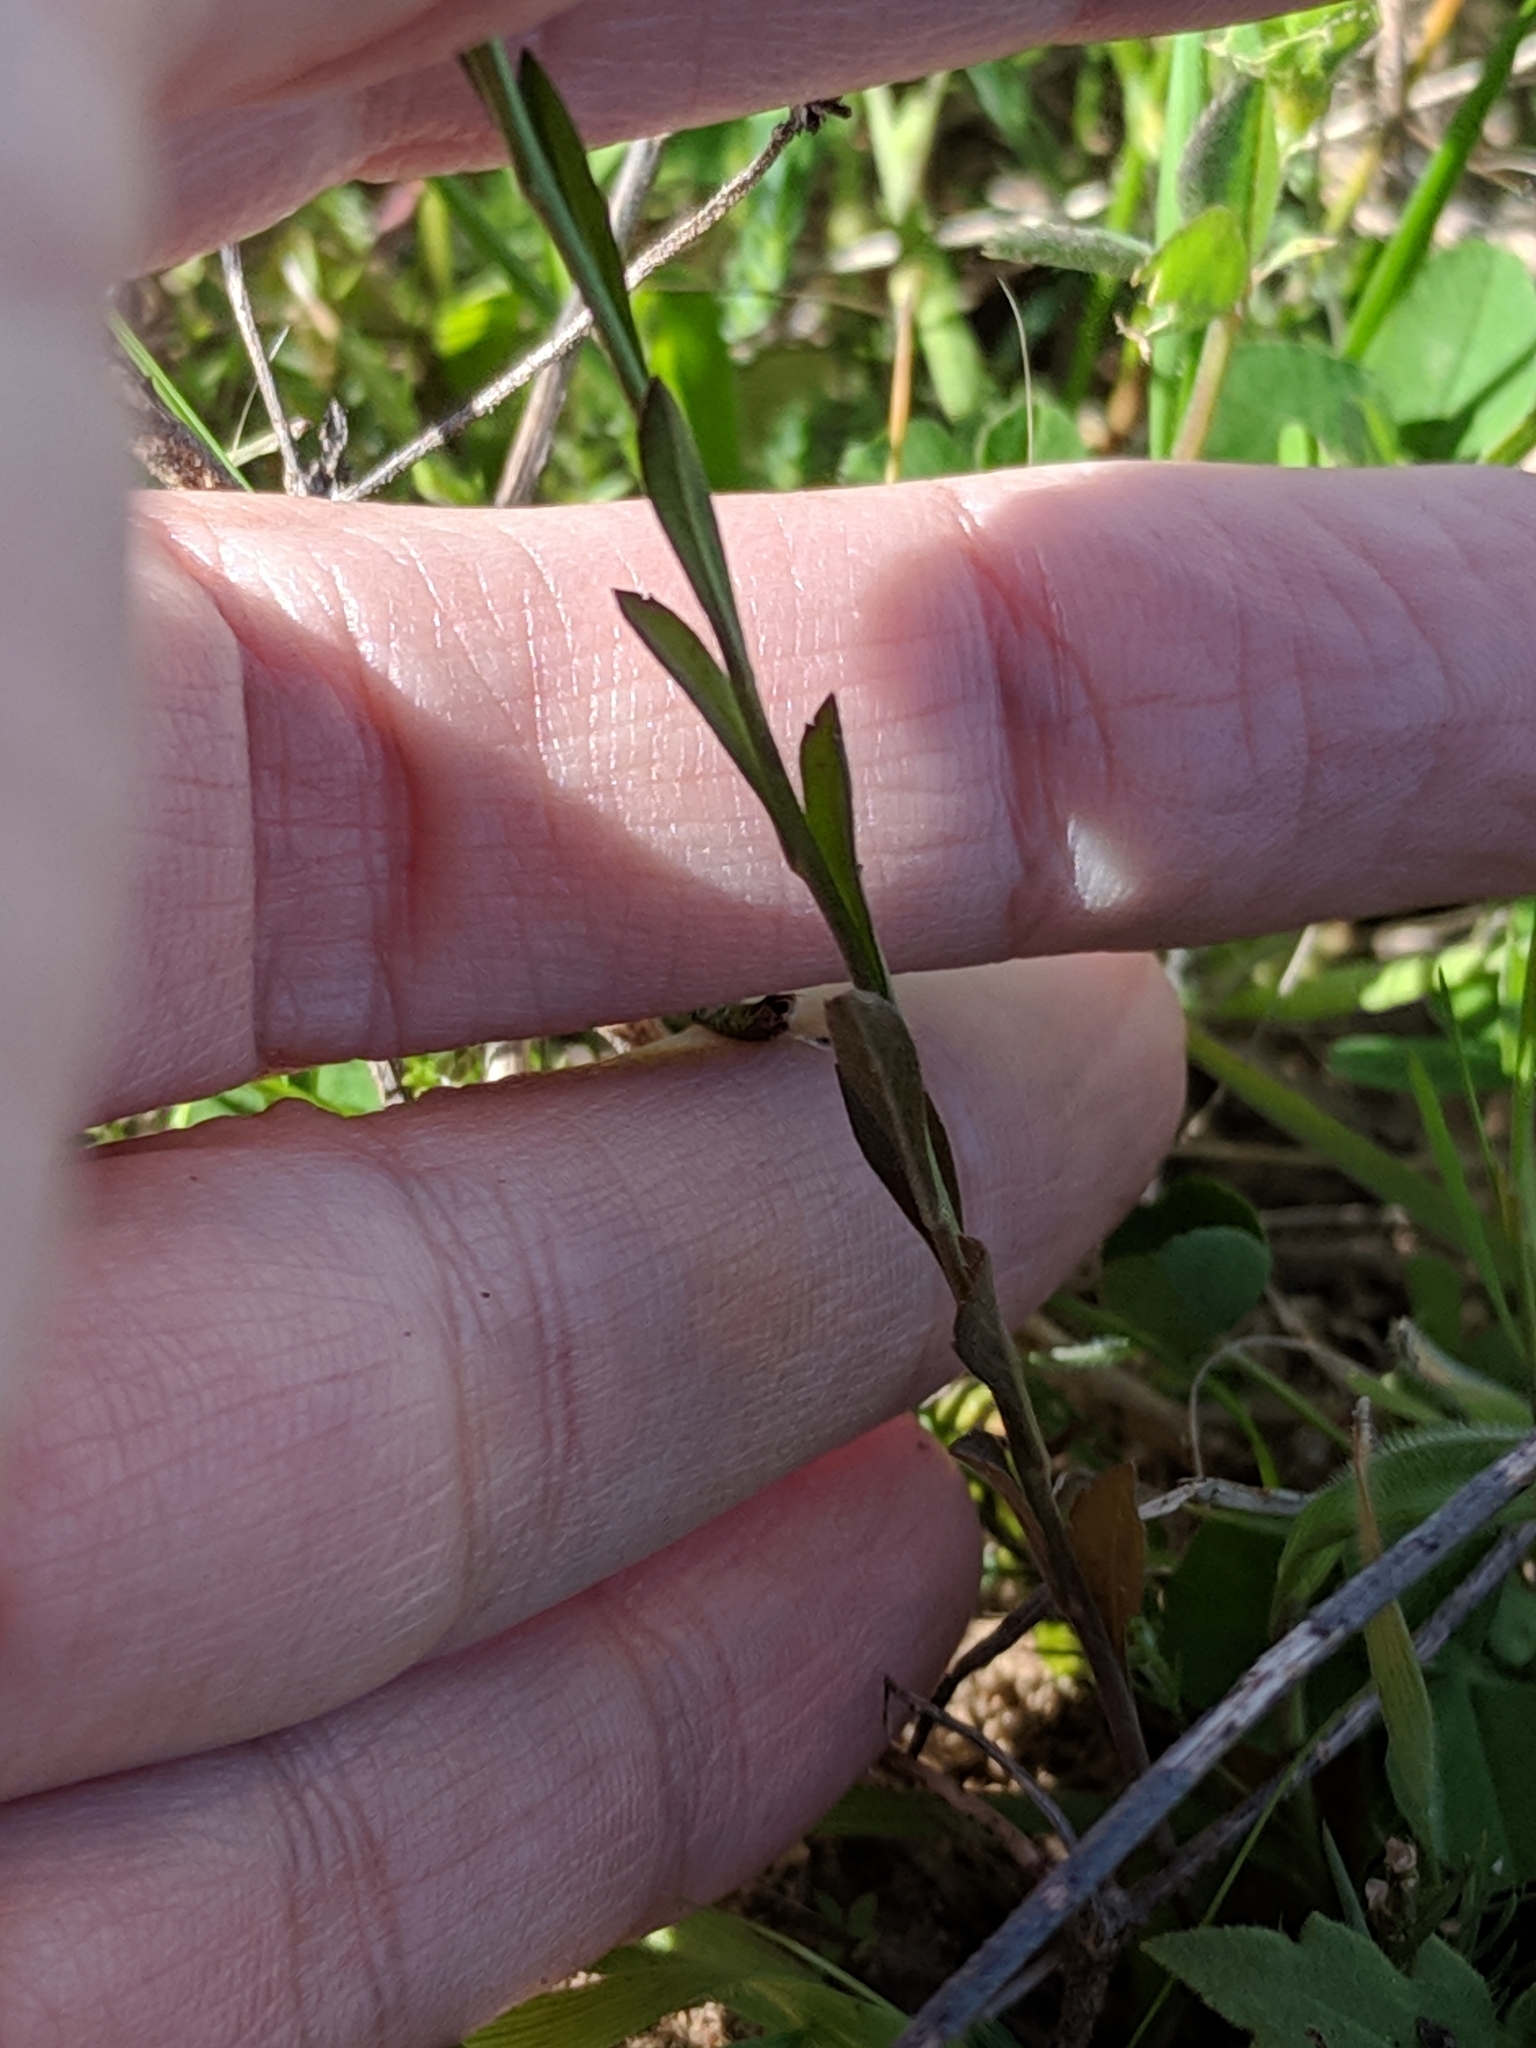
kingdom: Plantae
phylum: Tracheophyta
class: Magnoliopsida
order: Brassicales
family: Brassicaceae
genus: Lepidium
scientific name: Lepidium virginicum
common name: Least pepperwort
